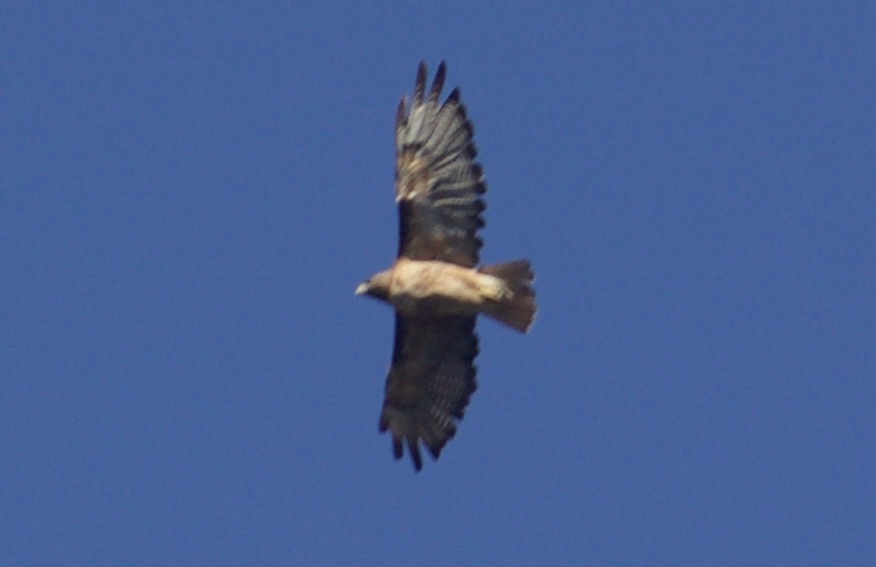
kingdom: Animalia
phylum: Chordata
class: Aves
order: Accipitriformes
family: Accipitridae
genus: Buteo
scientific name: Buteo jamaicensis
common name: Red-tailed hawk
